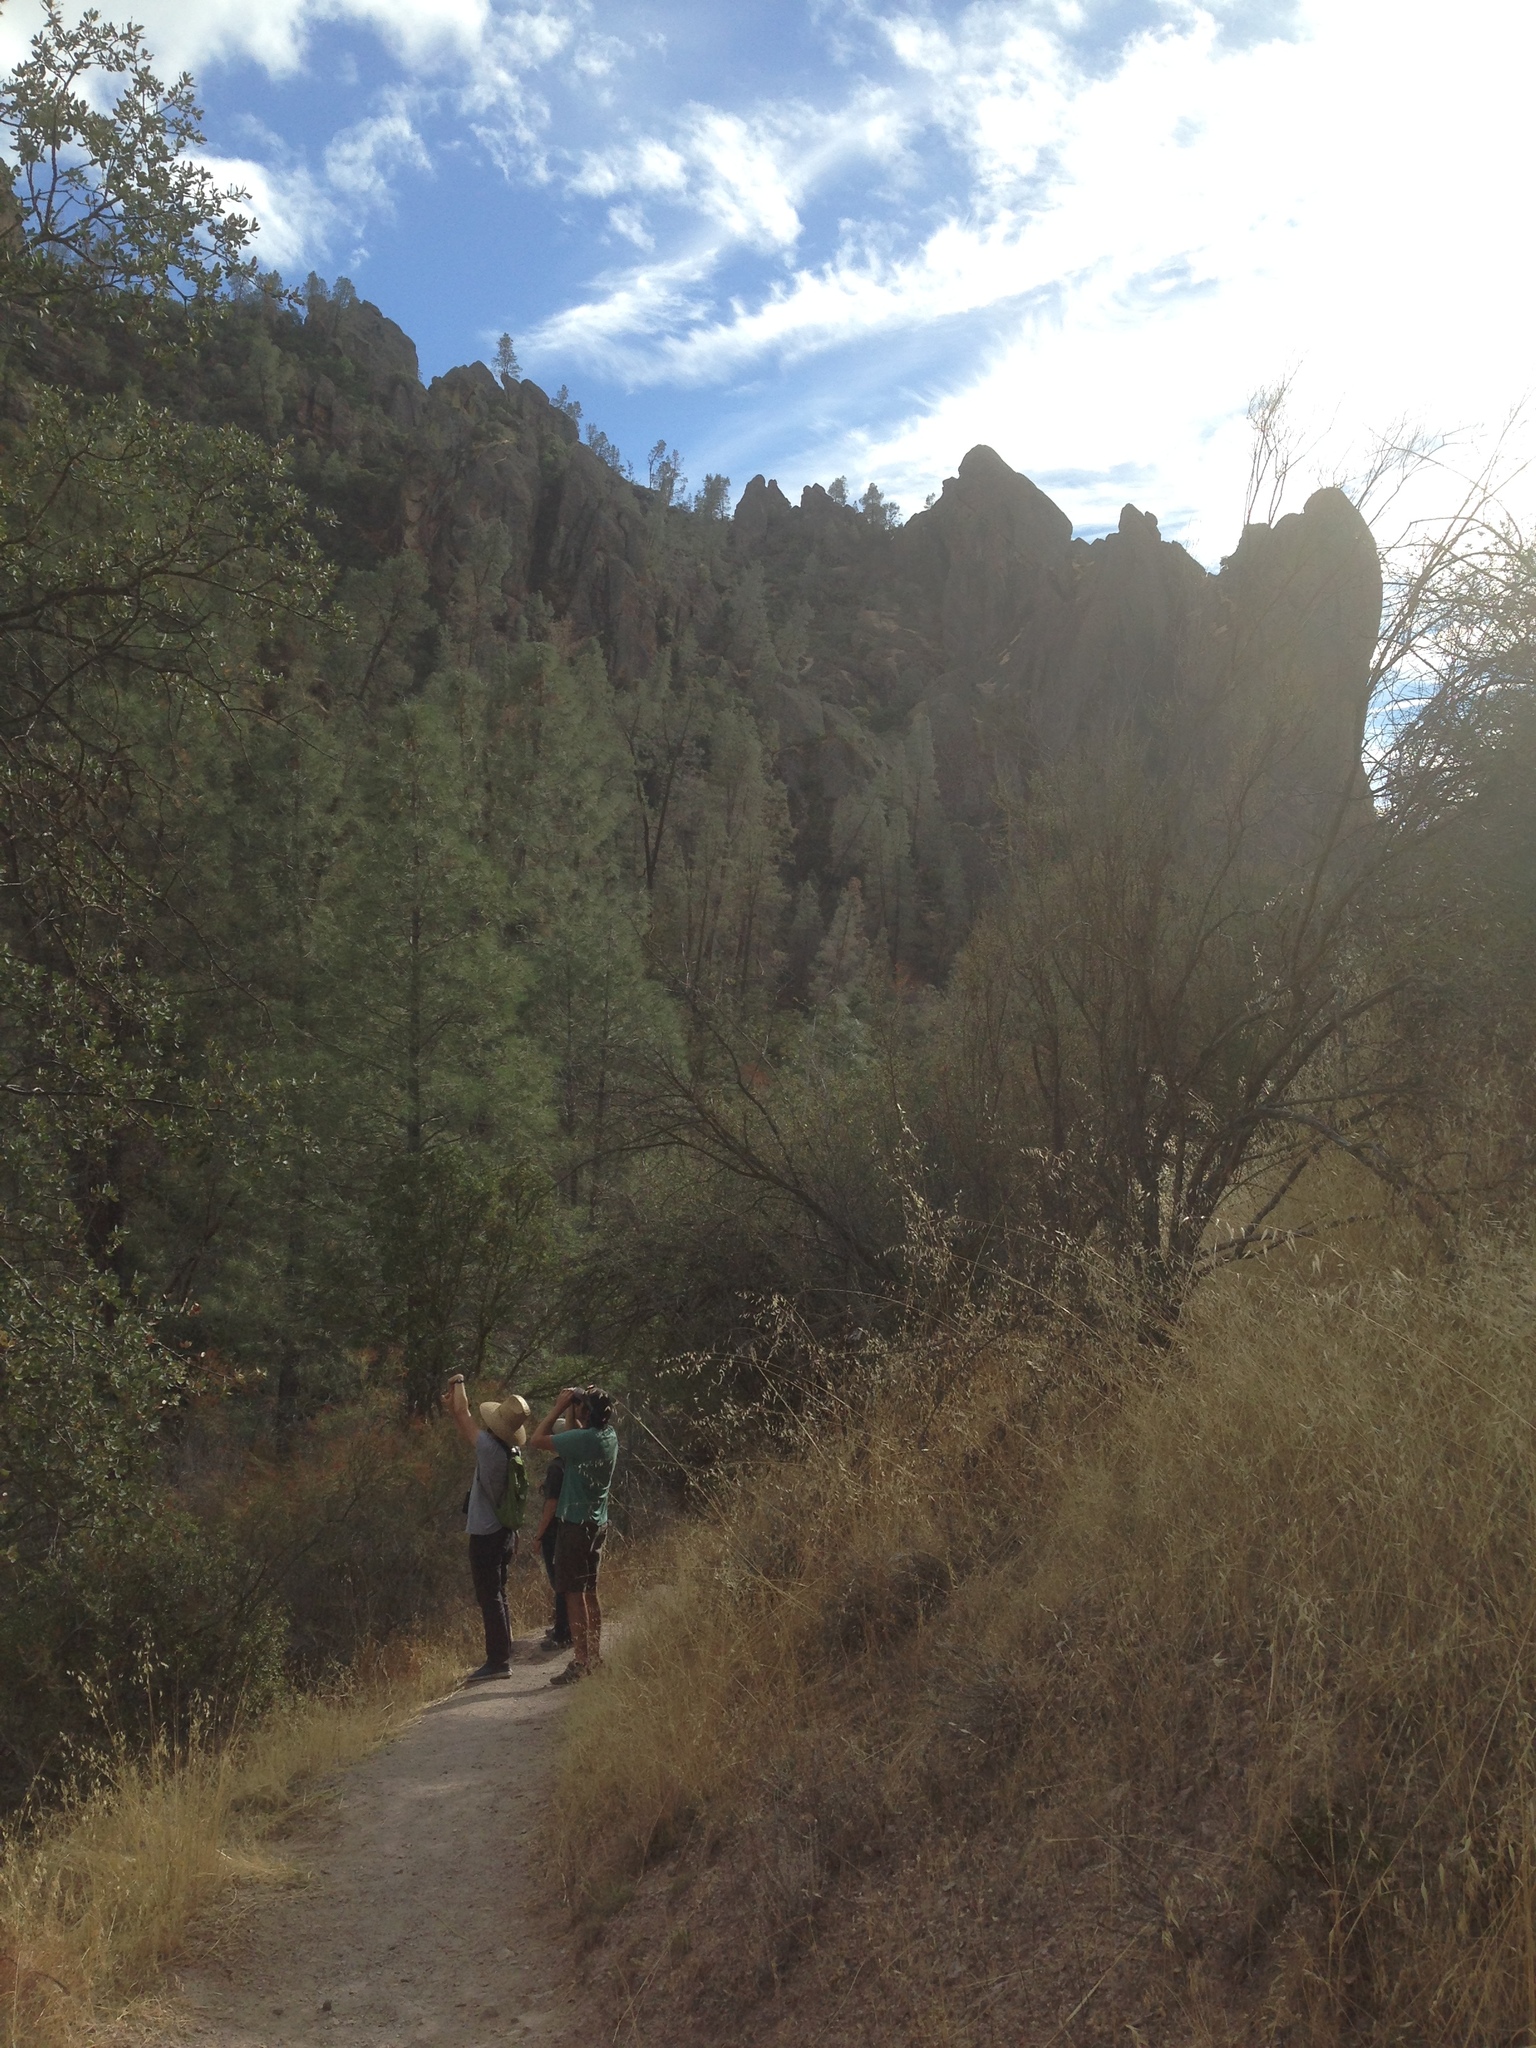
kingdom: Plantae
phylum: Tracheophyta
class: Pinopsida
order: Pinales
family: Pinaceae
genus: Pinus
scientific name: Pinus sabiniana
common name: Bull pine
